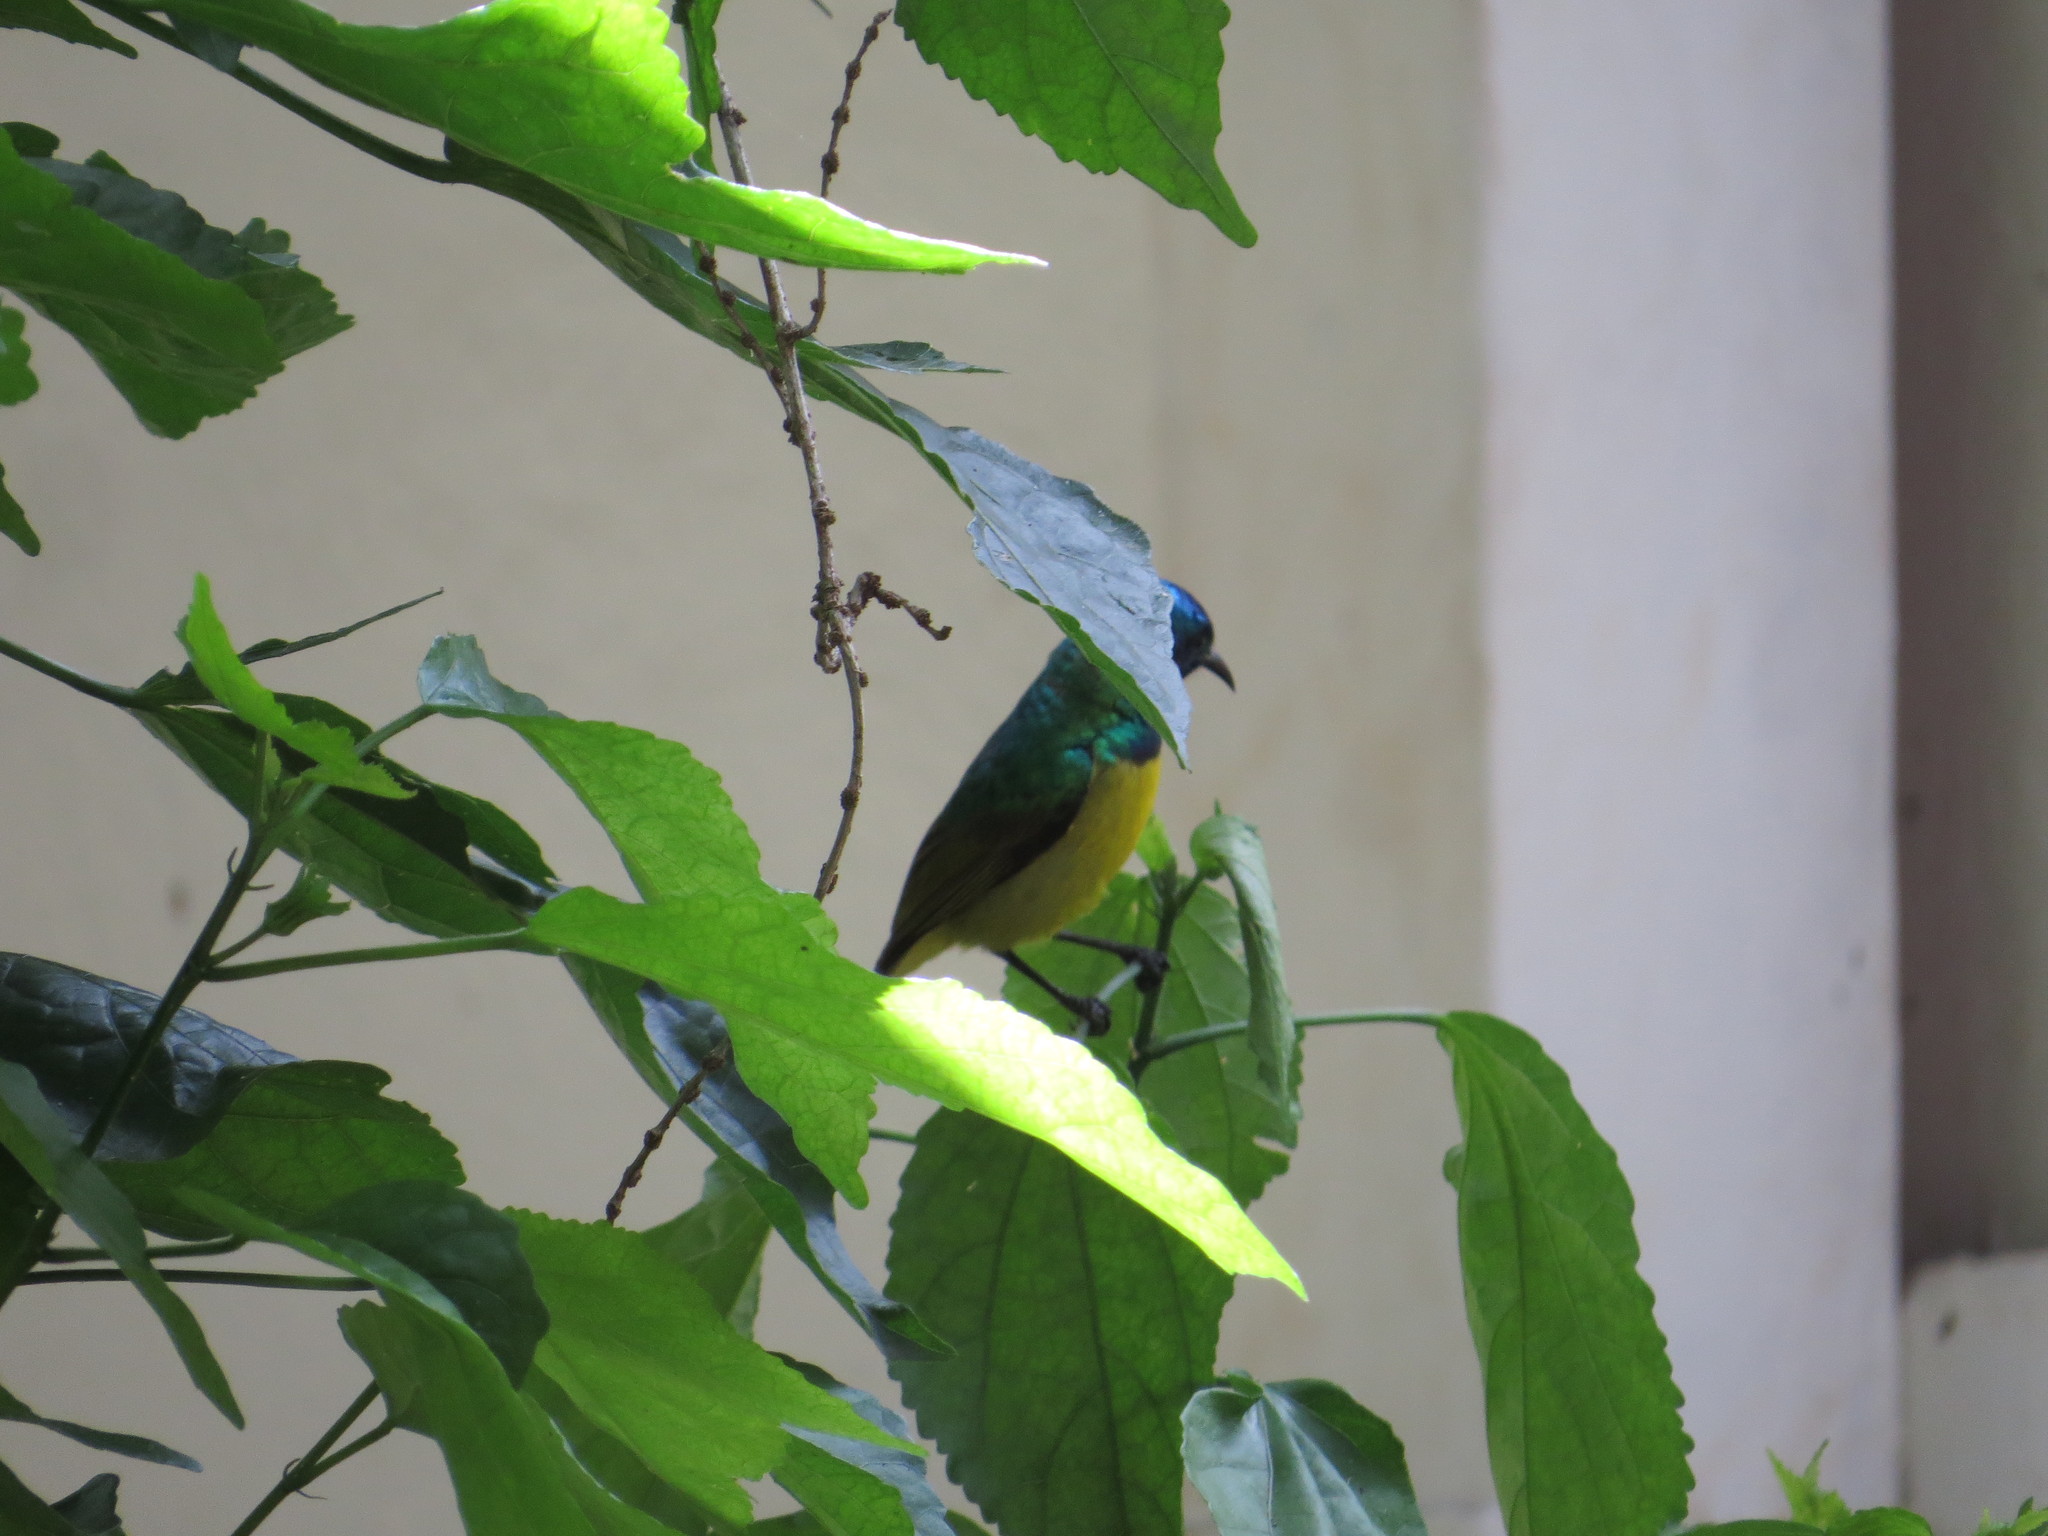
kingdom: Animalia
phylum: Chordata
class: Aves
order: Passeriformes
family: Nectariniidae
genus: Hedydipna
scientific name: Hedydipna collaris
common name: Collared sunbird
